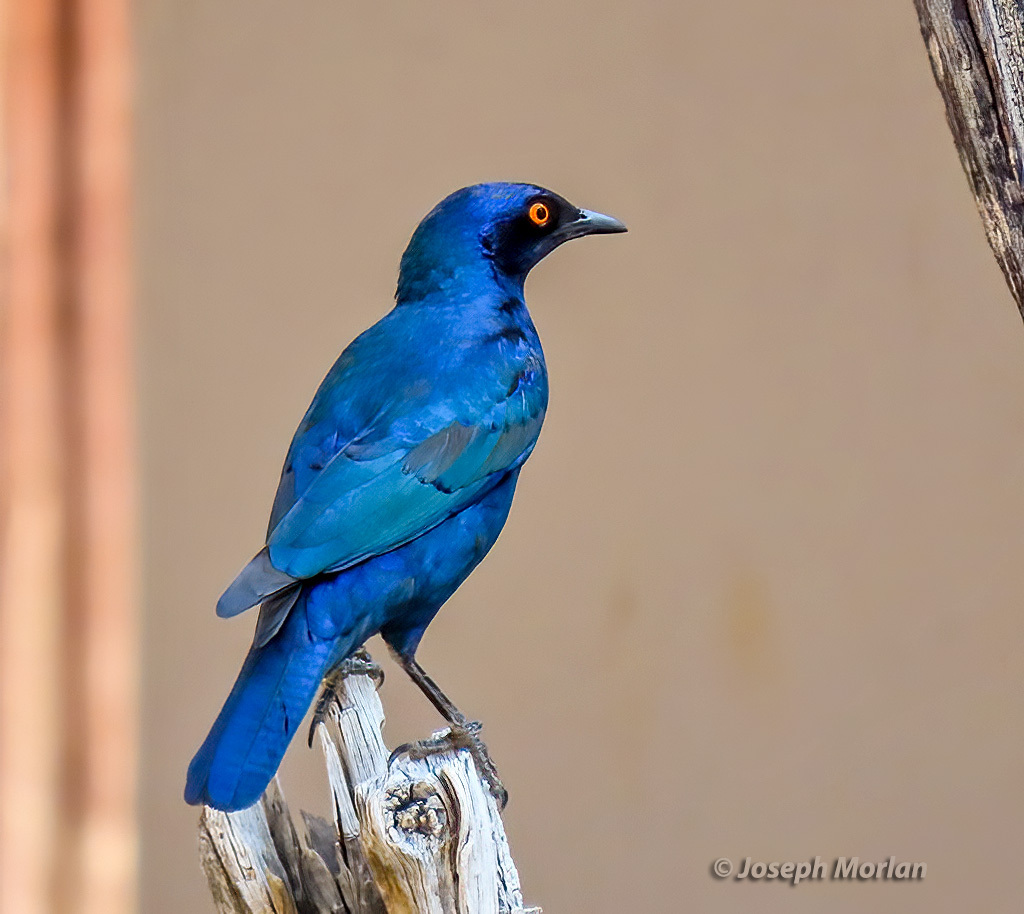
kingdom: Animalia
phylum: Chordata
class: Aves
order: Passeriformes
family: Sturnidae
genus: Lamprotornis
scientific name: Lamprotornis nitens
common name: Cape starling
